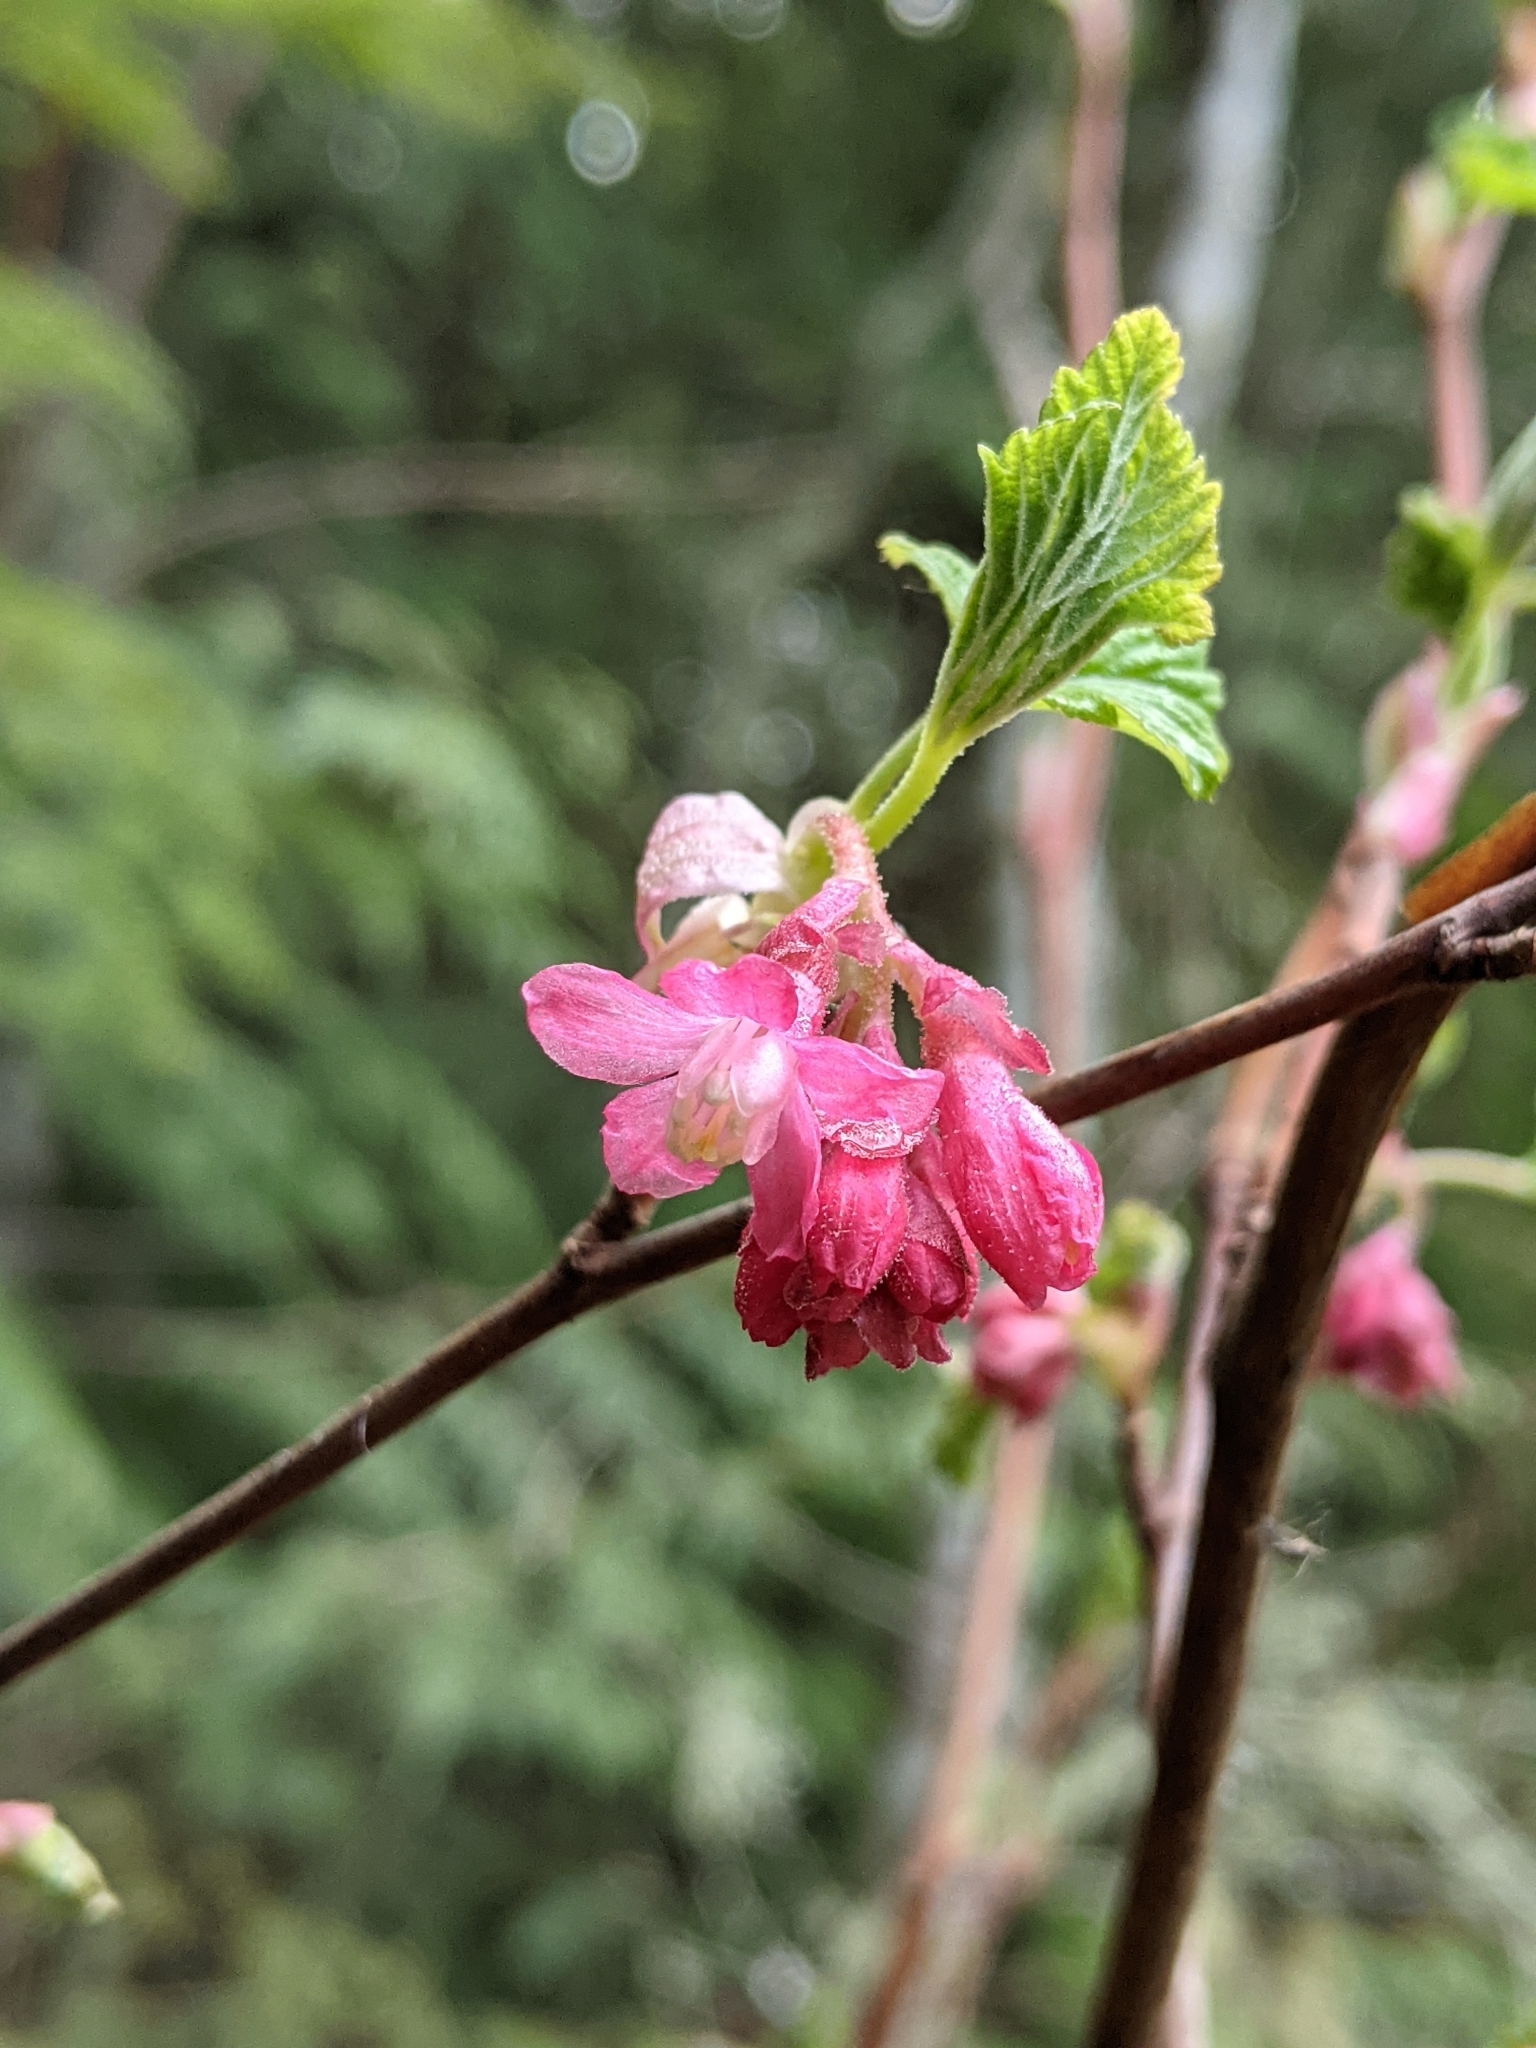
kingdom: Plantae
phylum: Tracheophyta
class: Magnoliopsida
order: Saxifragales
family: Grossulariaceae
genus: Ribes
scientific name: Ribes sanguineum
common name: Flowering currant
